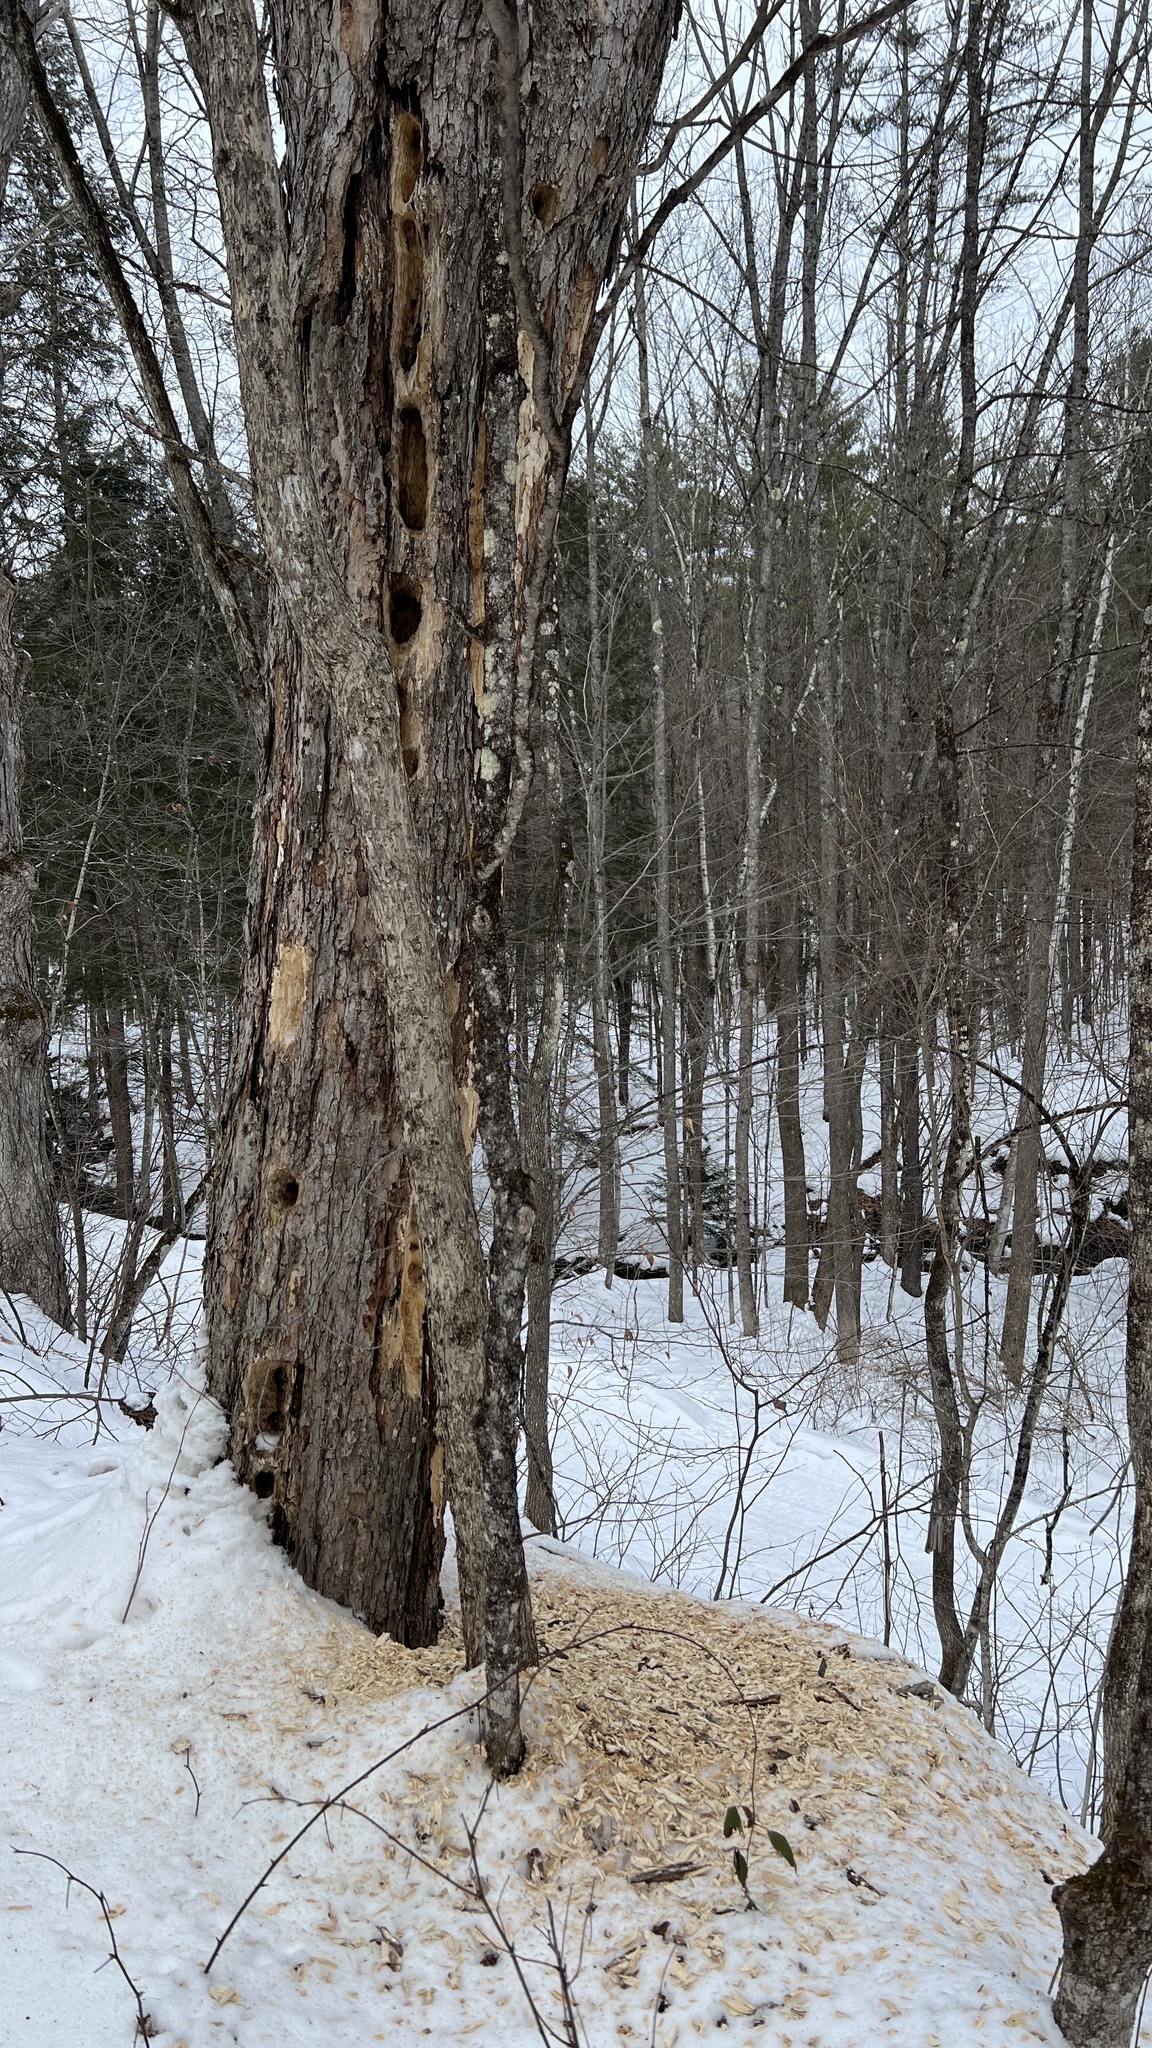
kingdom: Animalia
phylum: Chordata
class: Aves
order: Piciformes
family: Picidae
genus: Dryocopus
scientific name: Dryocopus pileatus
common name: Pileated woodpecker
